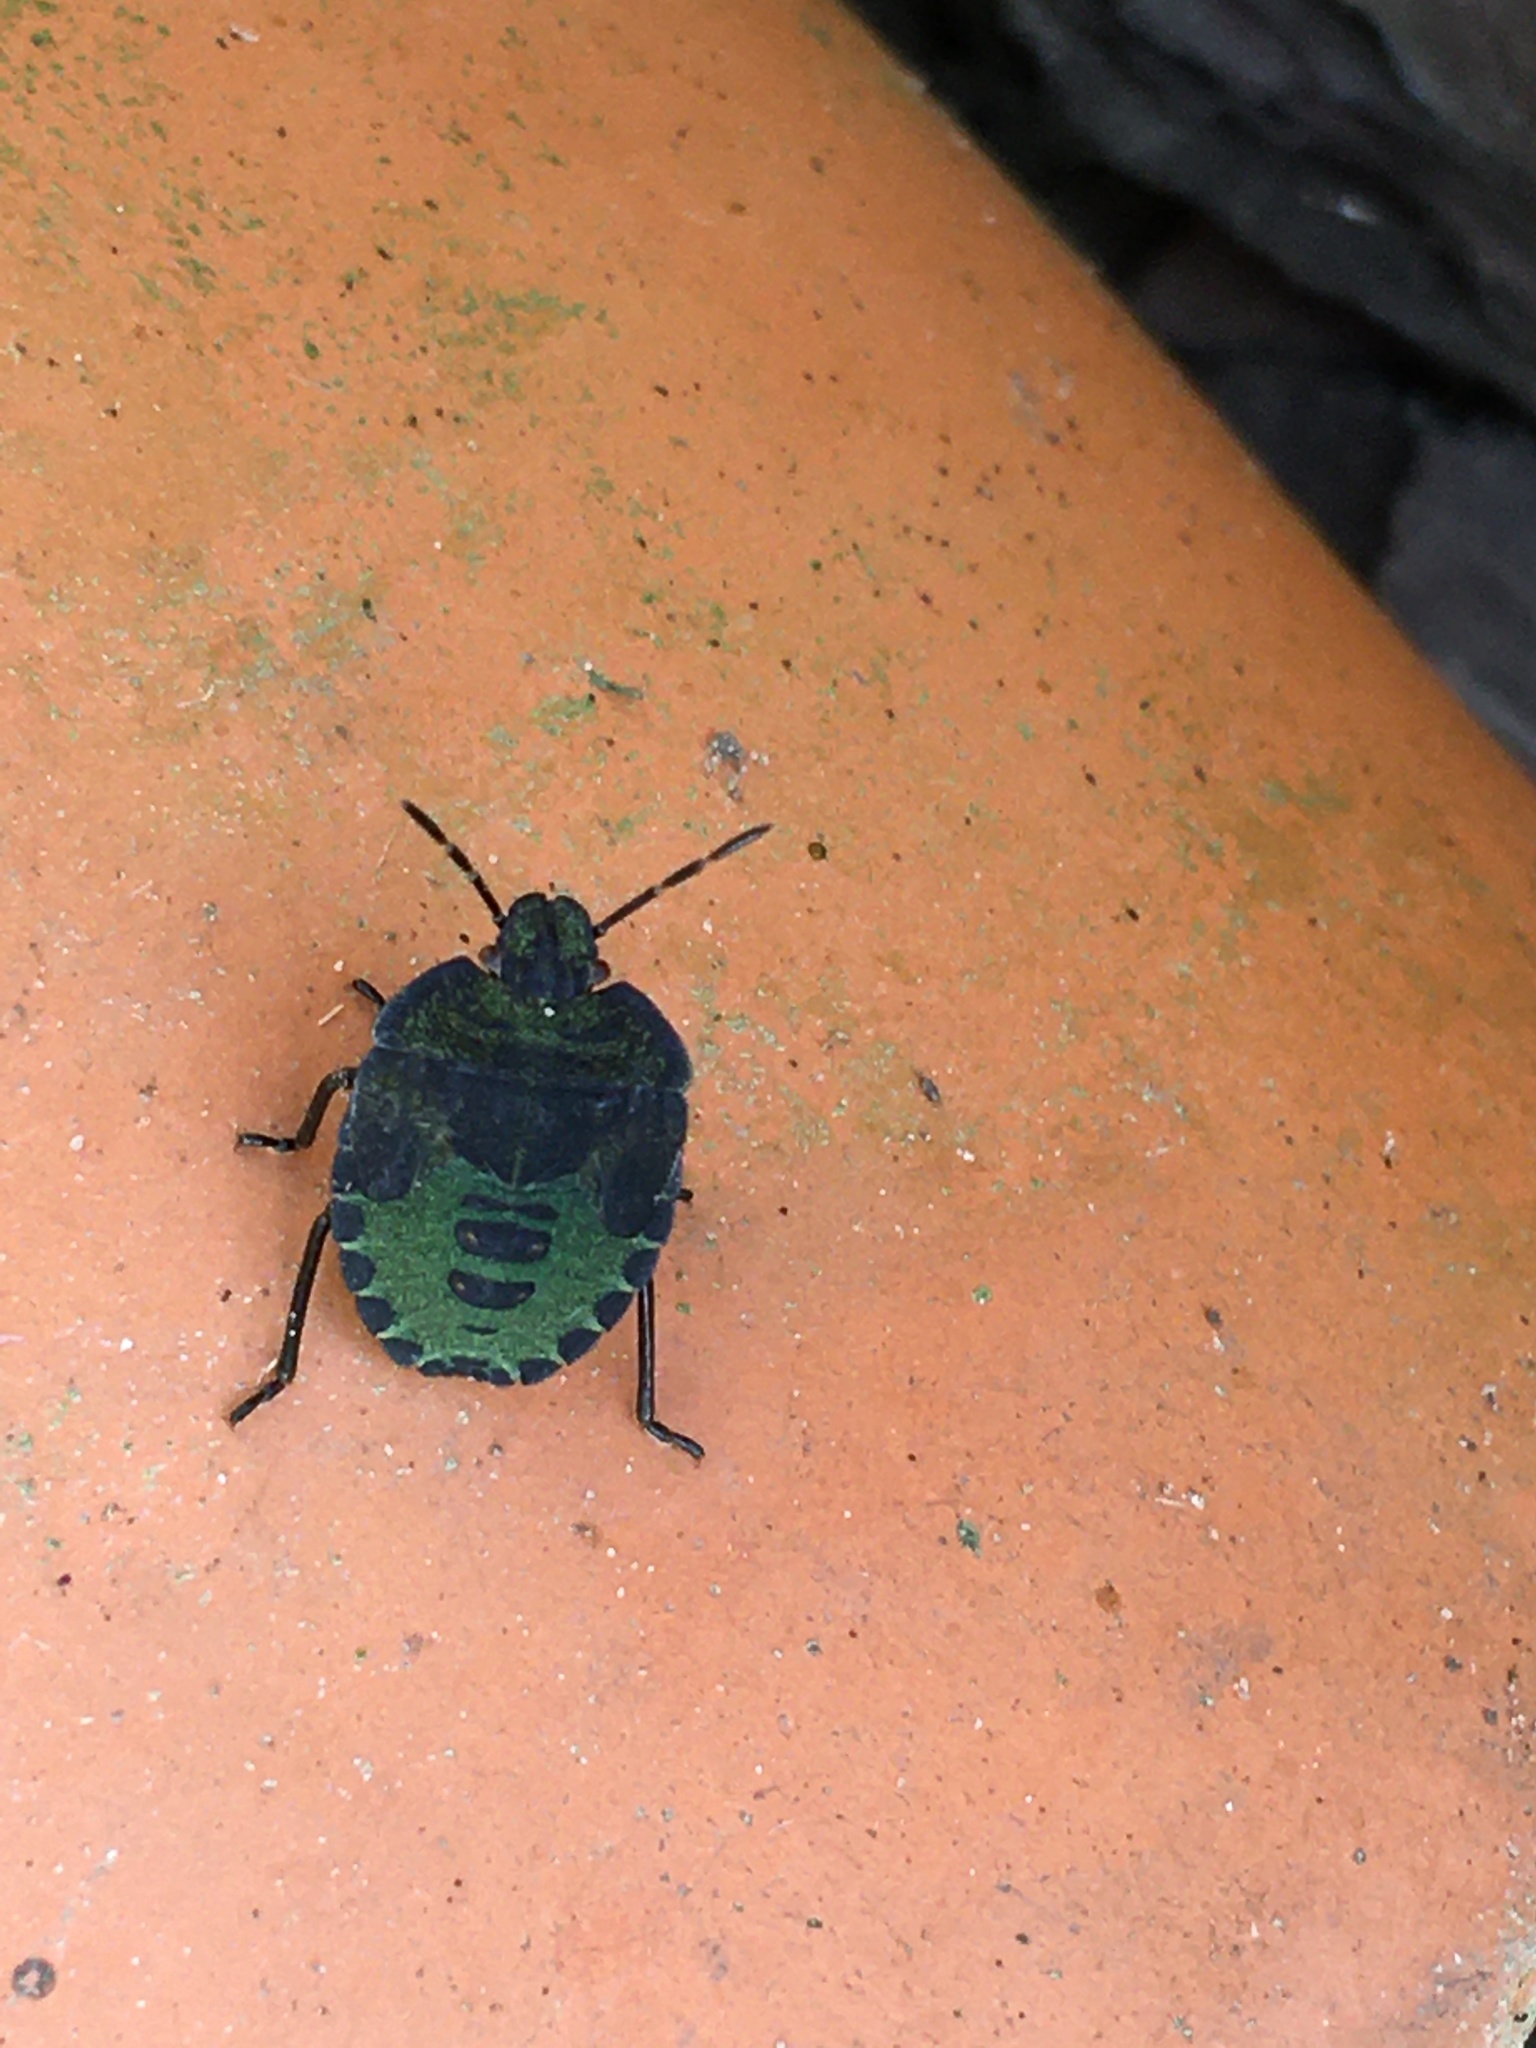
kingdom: Animalia
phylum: Arthropoda
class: Insecta
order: Hemiptera
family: Pentatomidae
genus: Palomena
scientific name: Palomena prasina
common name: Green shieldbug
